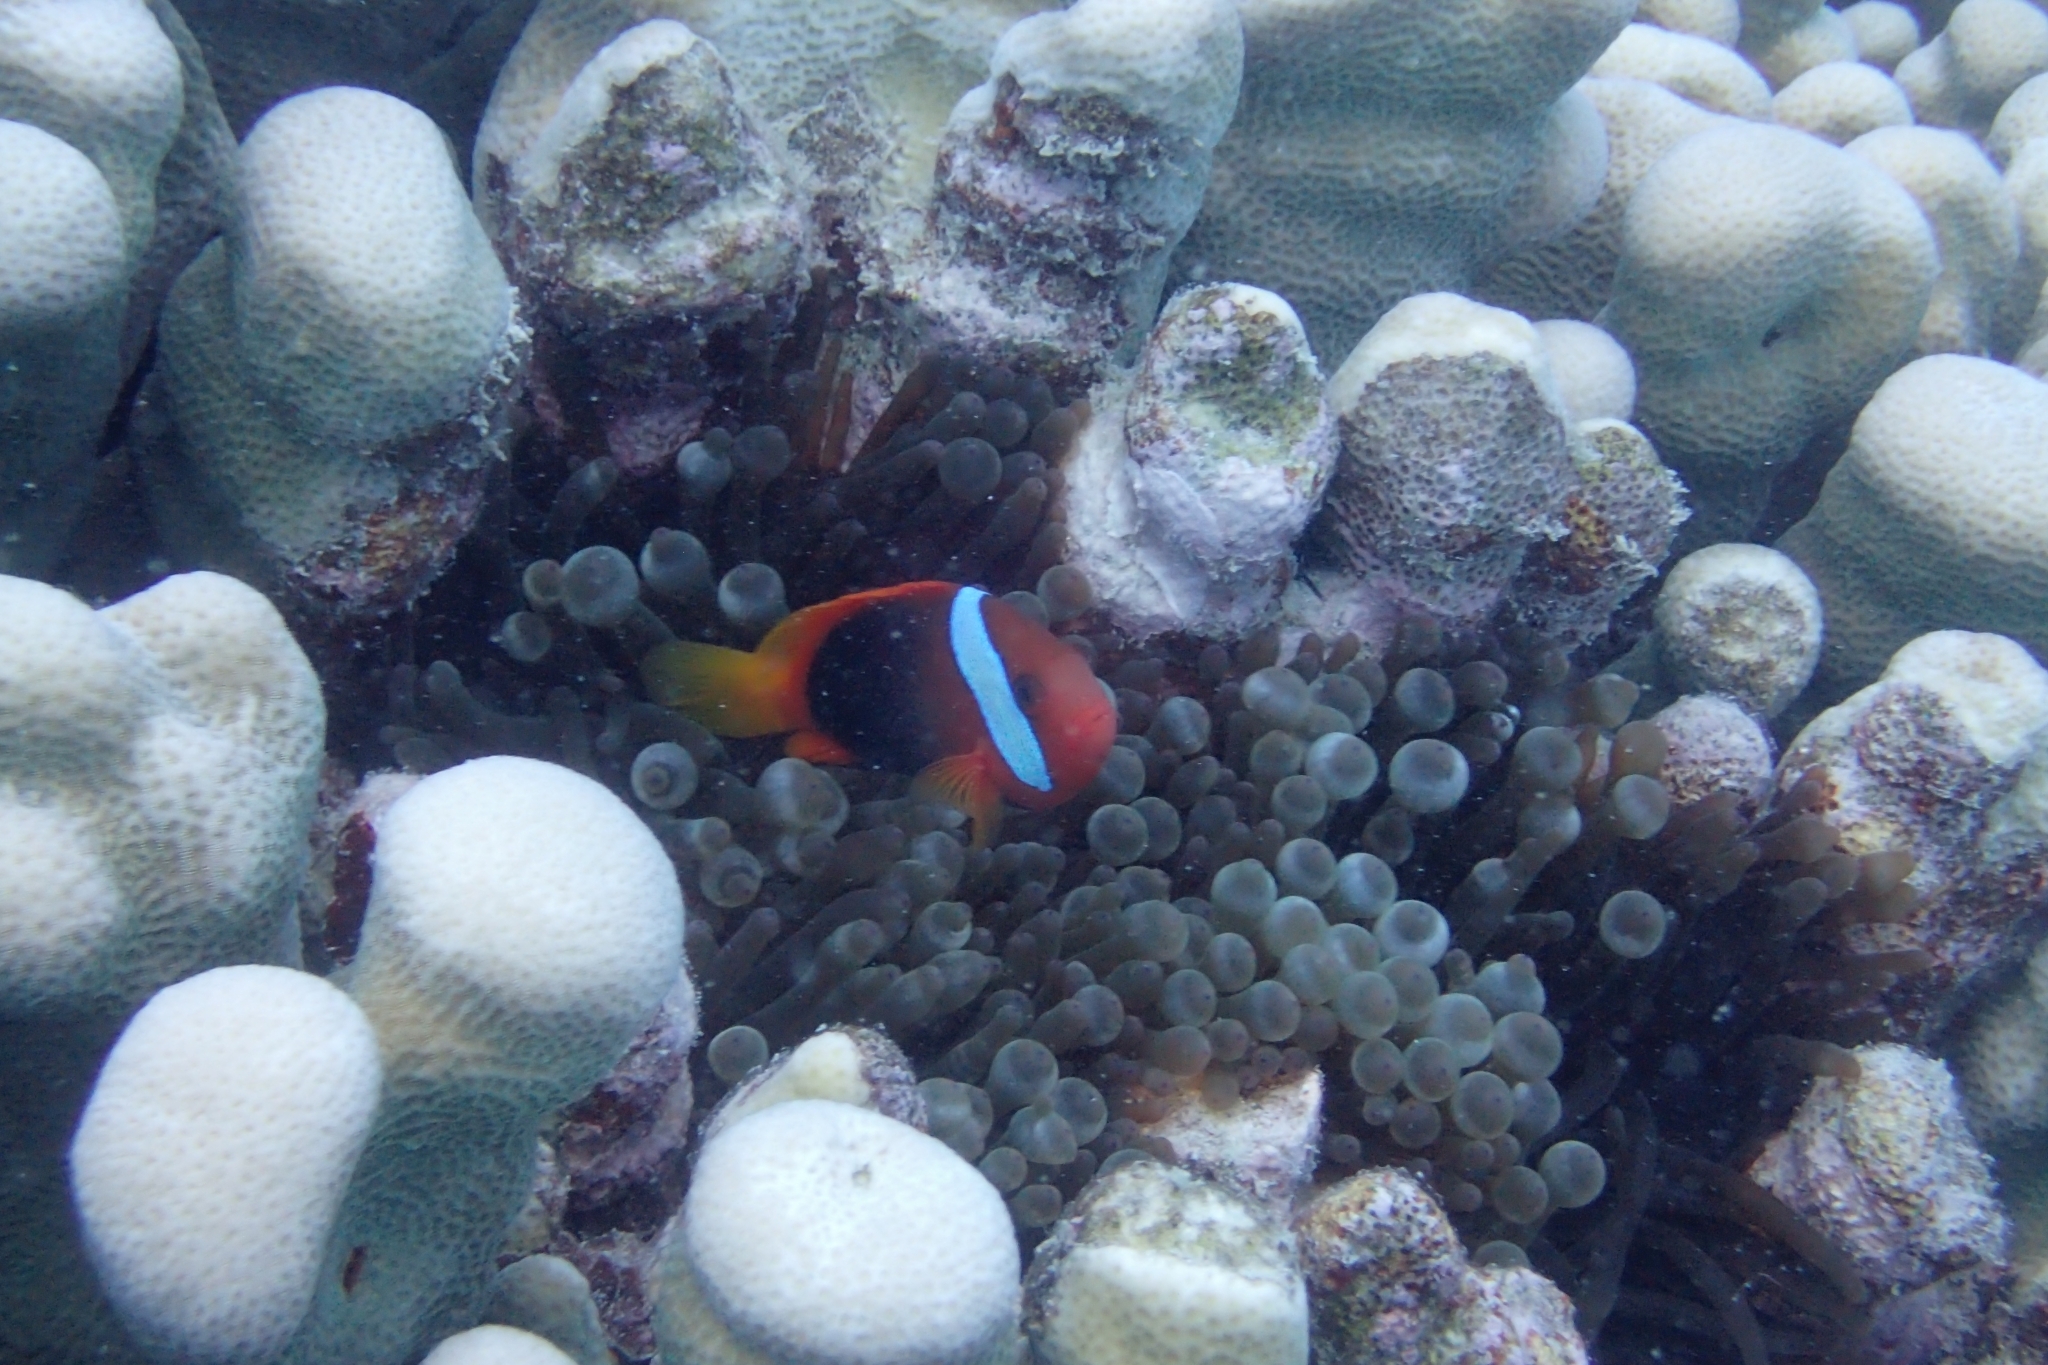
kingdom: Animalia
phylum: Chordata
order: Perciformes
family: Pomacentridae
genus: Amphiprion
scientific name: Amphiprion melanopus
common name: Black anemonefish
